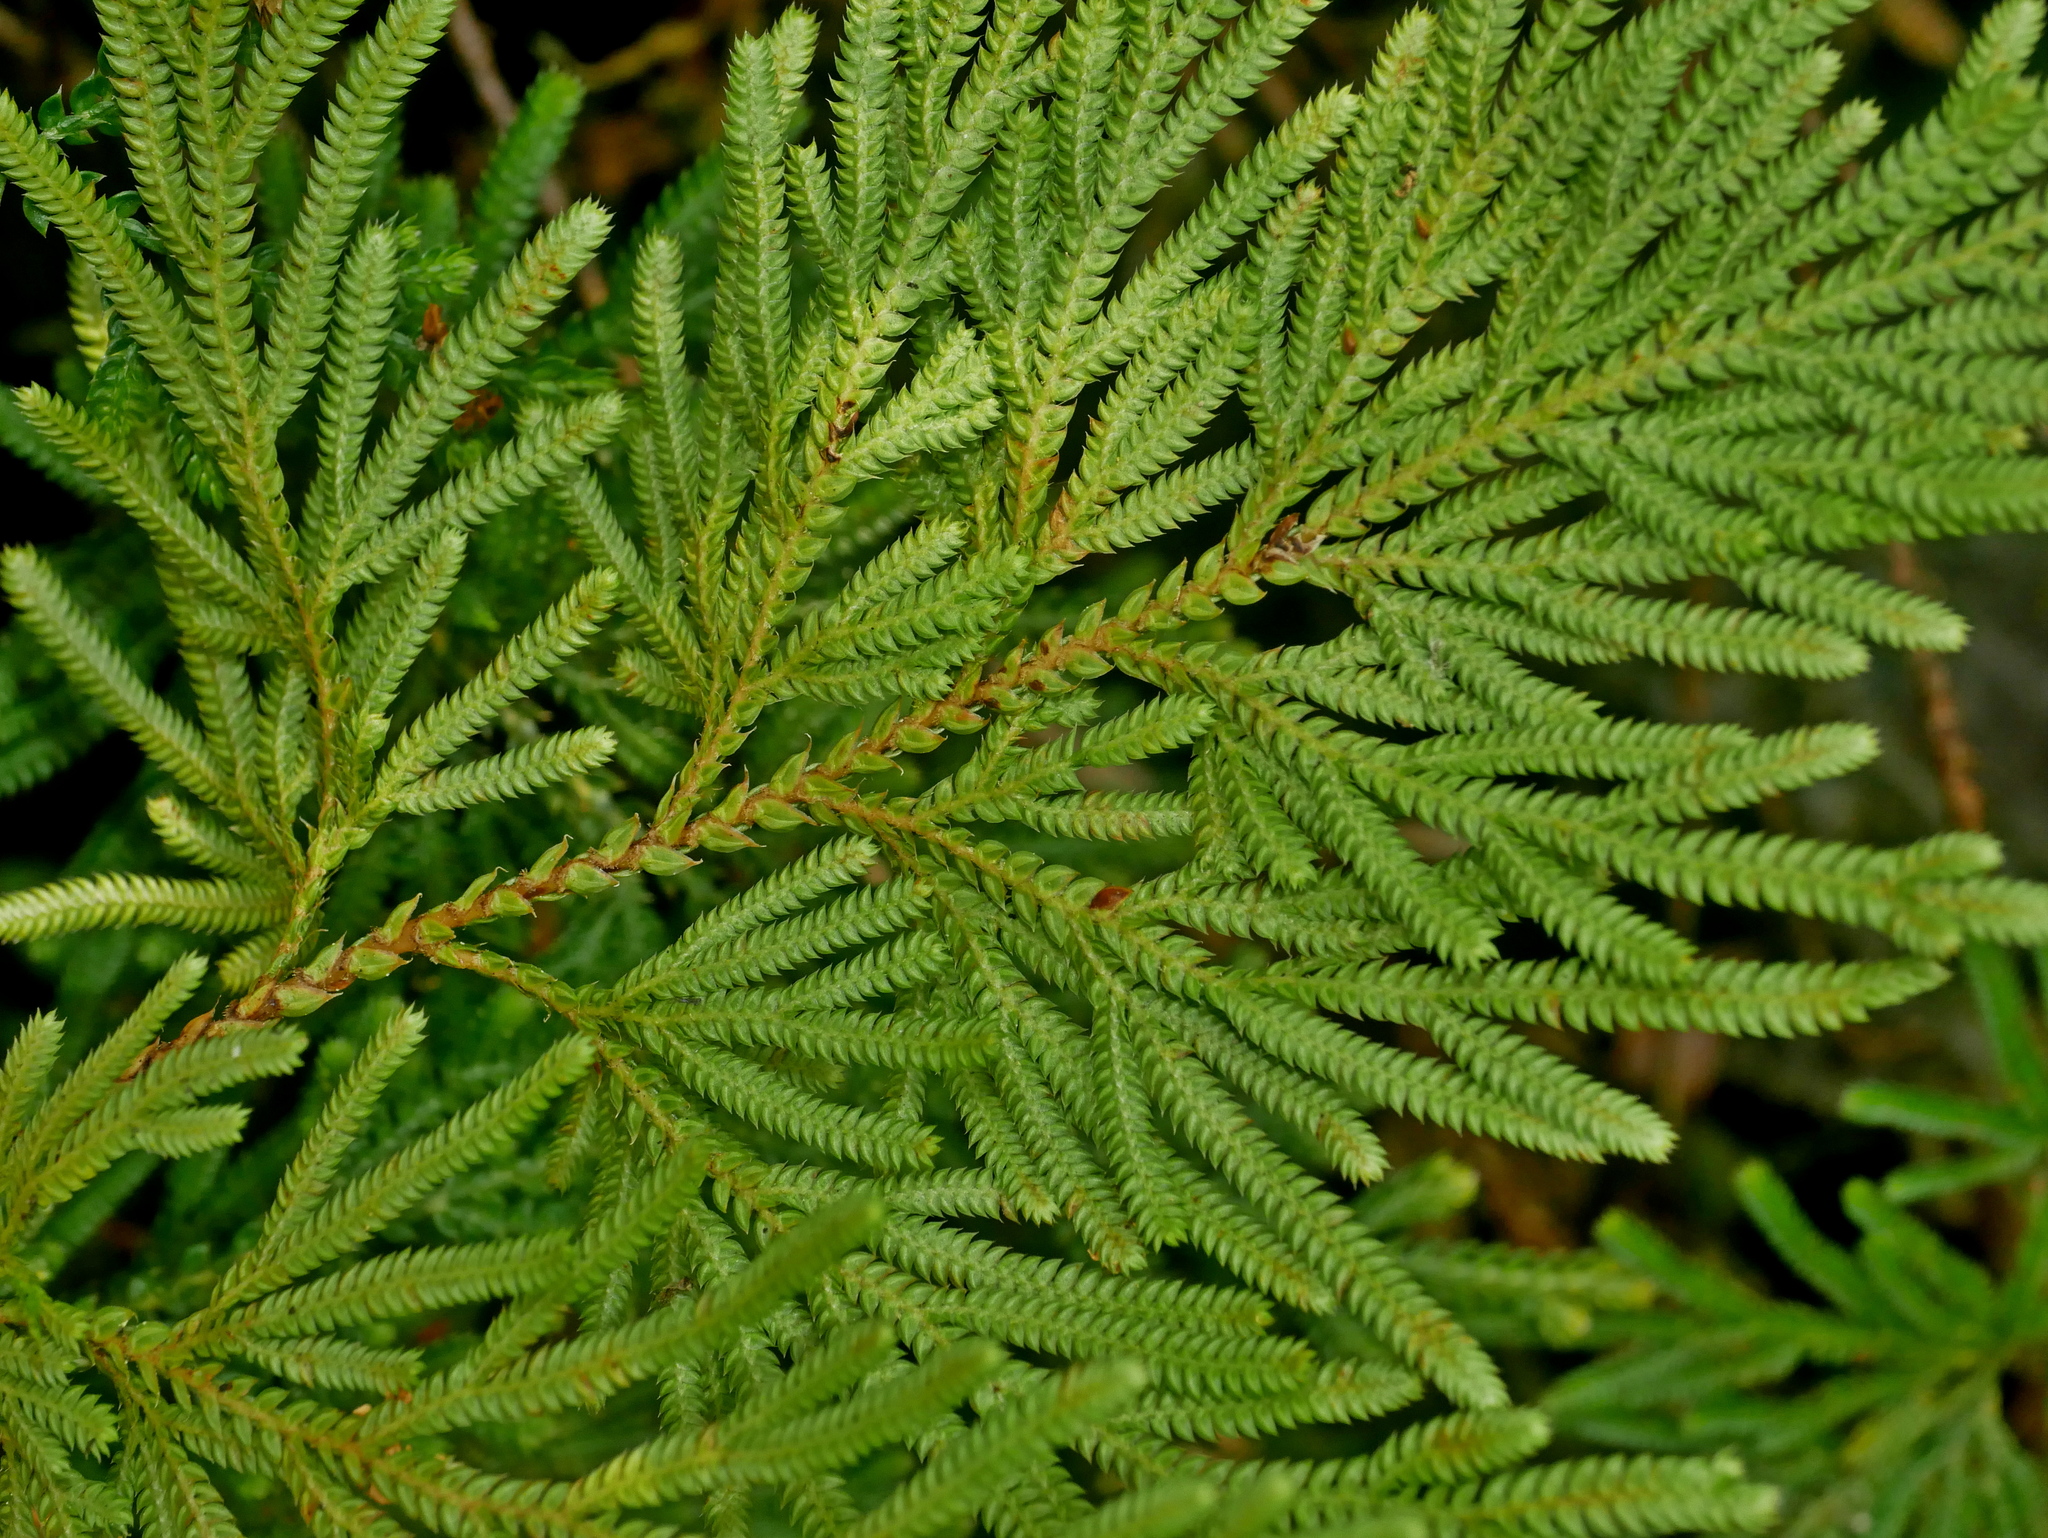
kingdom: Plantae
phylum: Tracheophyta
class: Lycopodiopsida
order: Selaginellales
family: Selaginellaceae
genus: Selaginella
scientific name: Selaginella involvens
